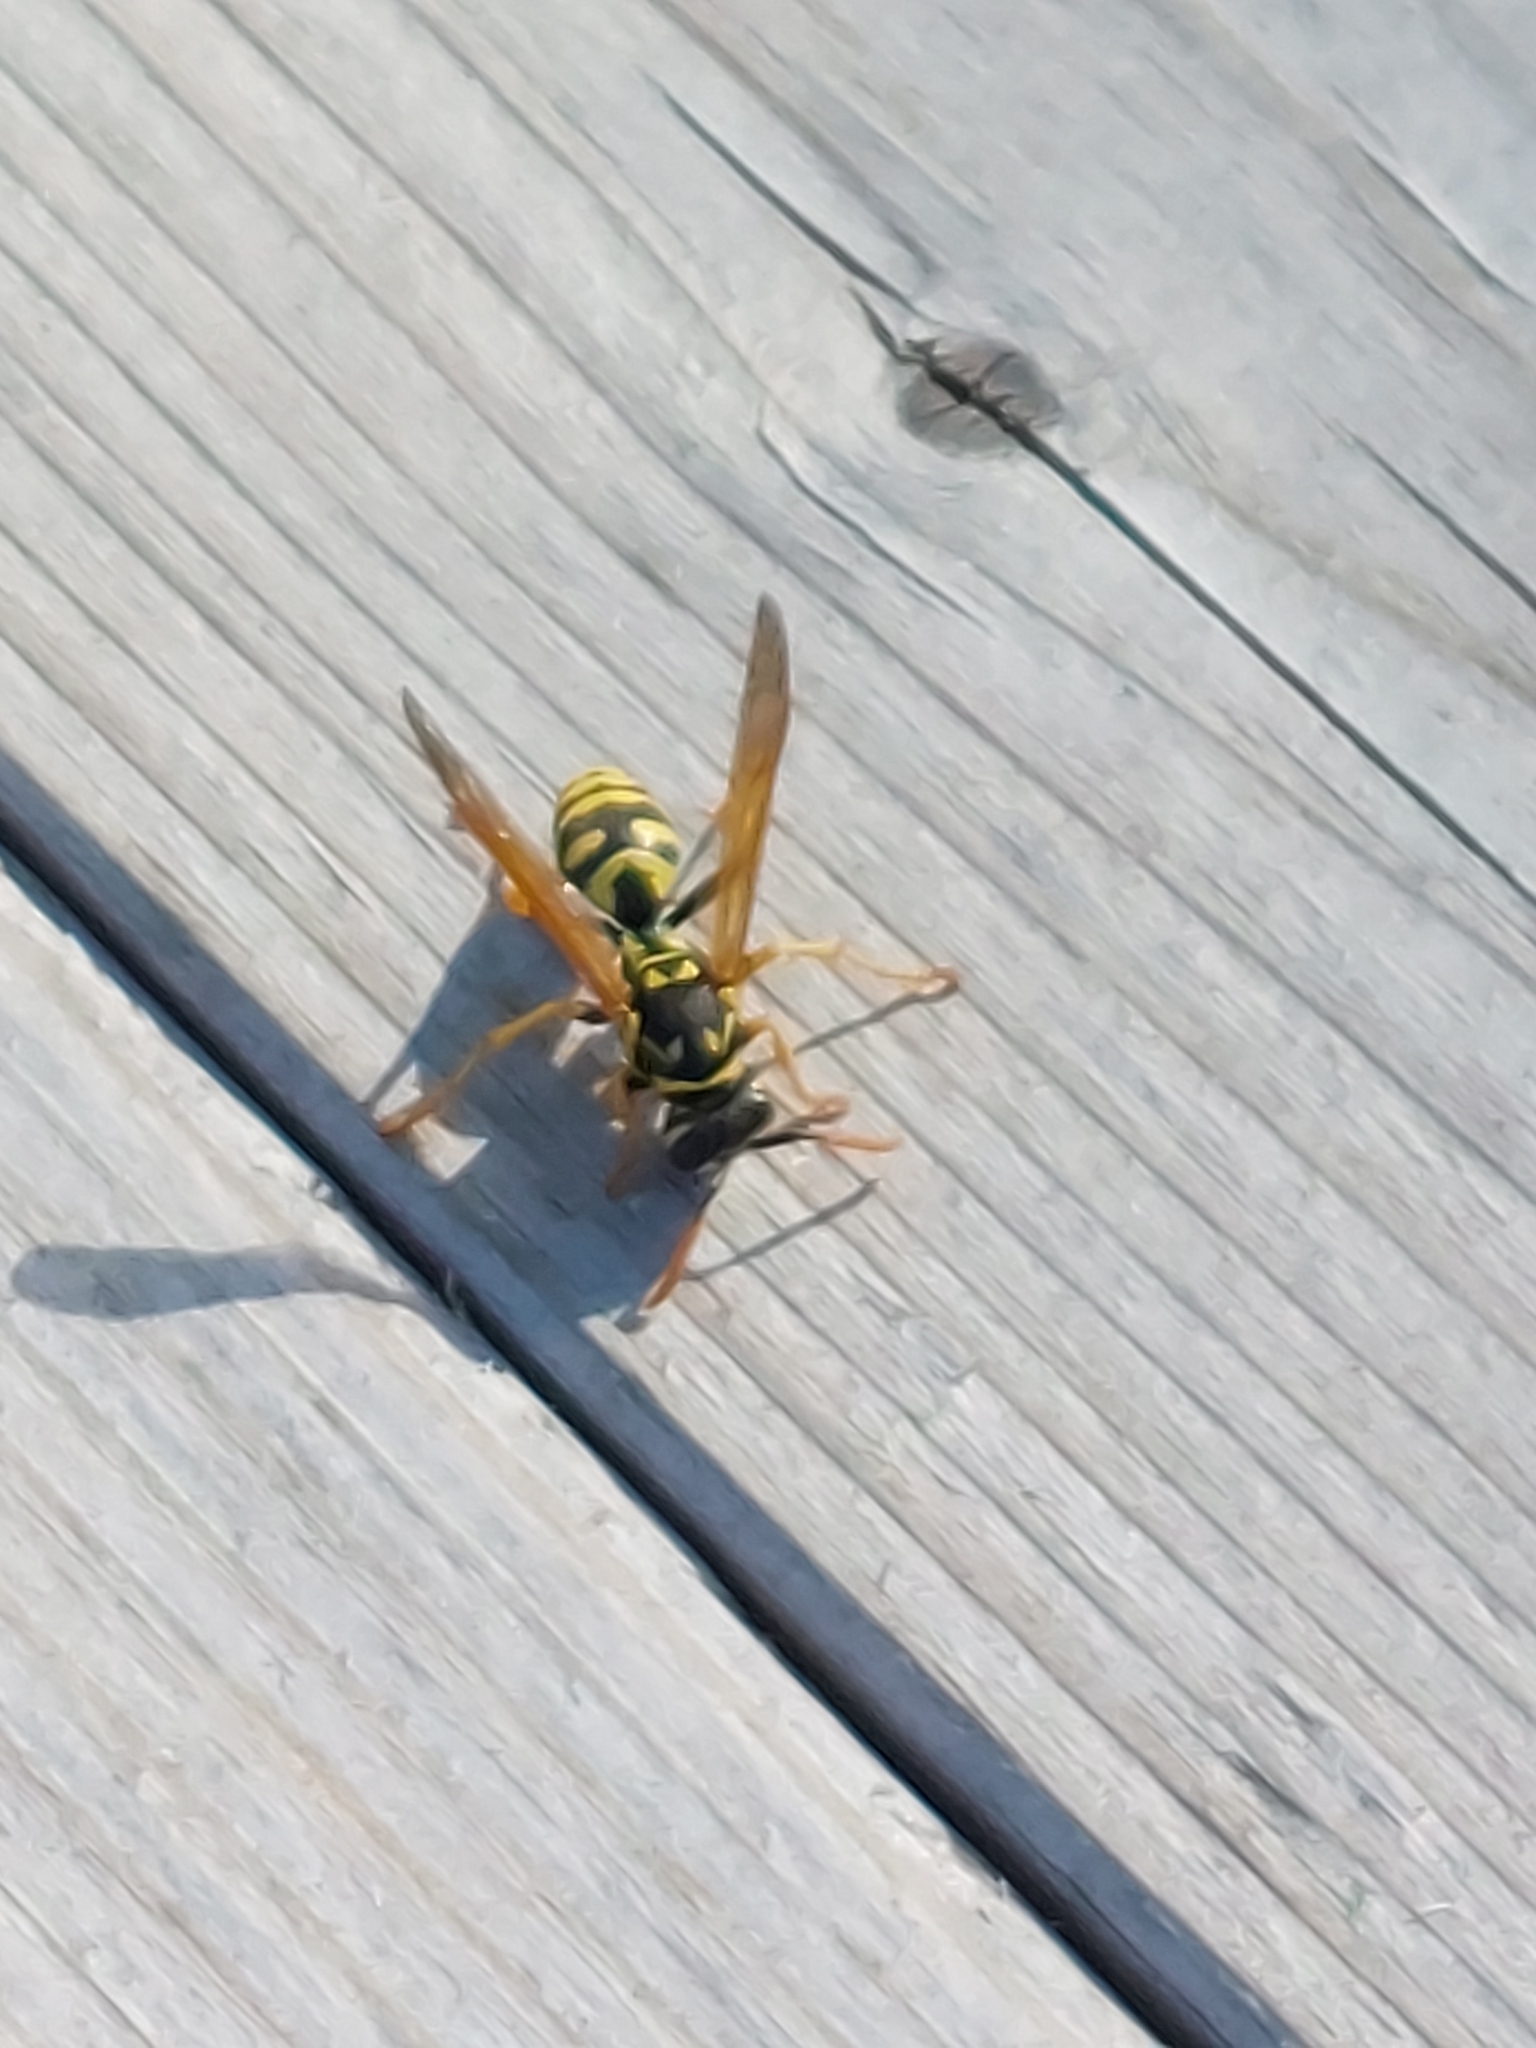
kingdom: Animalia
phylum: Arthropoda
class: Insecta
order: Hymenoptera
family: Eumenidae
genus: Polistes
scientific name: Polistes dominula
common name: Paper wasp
